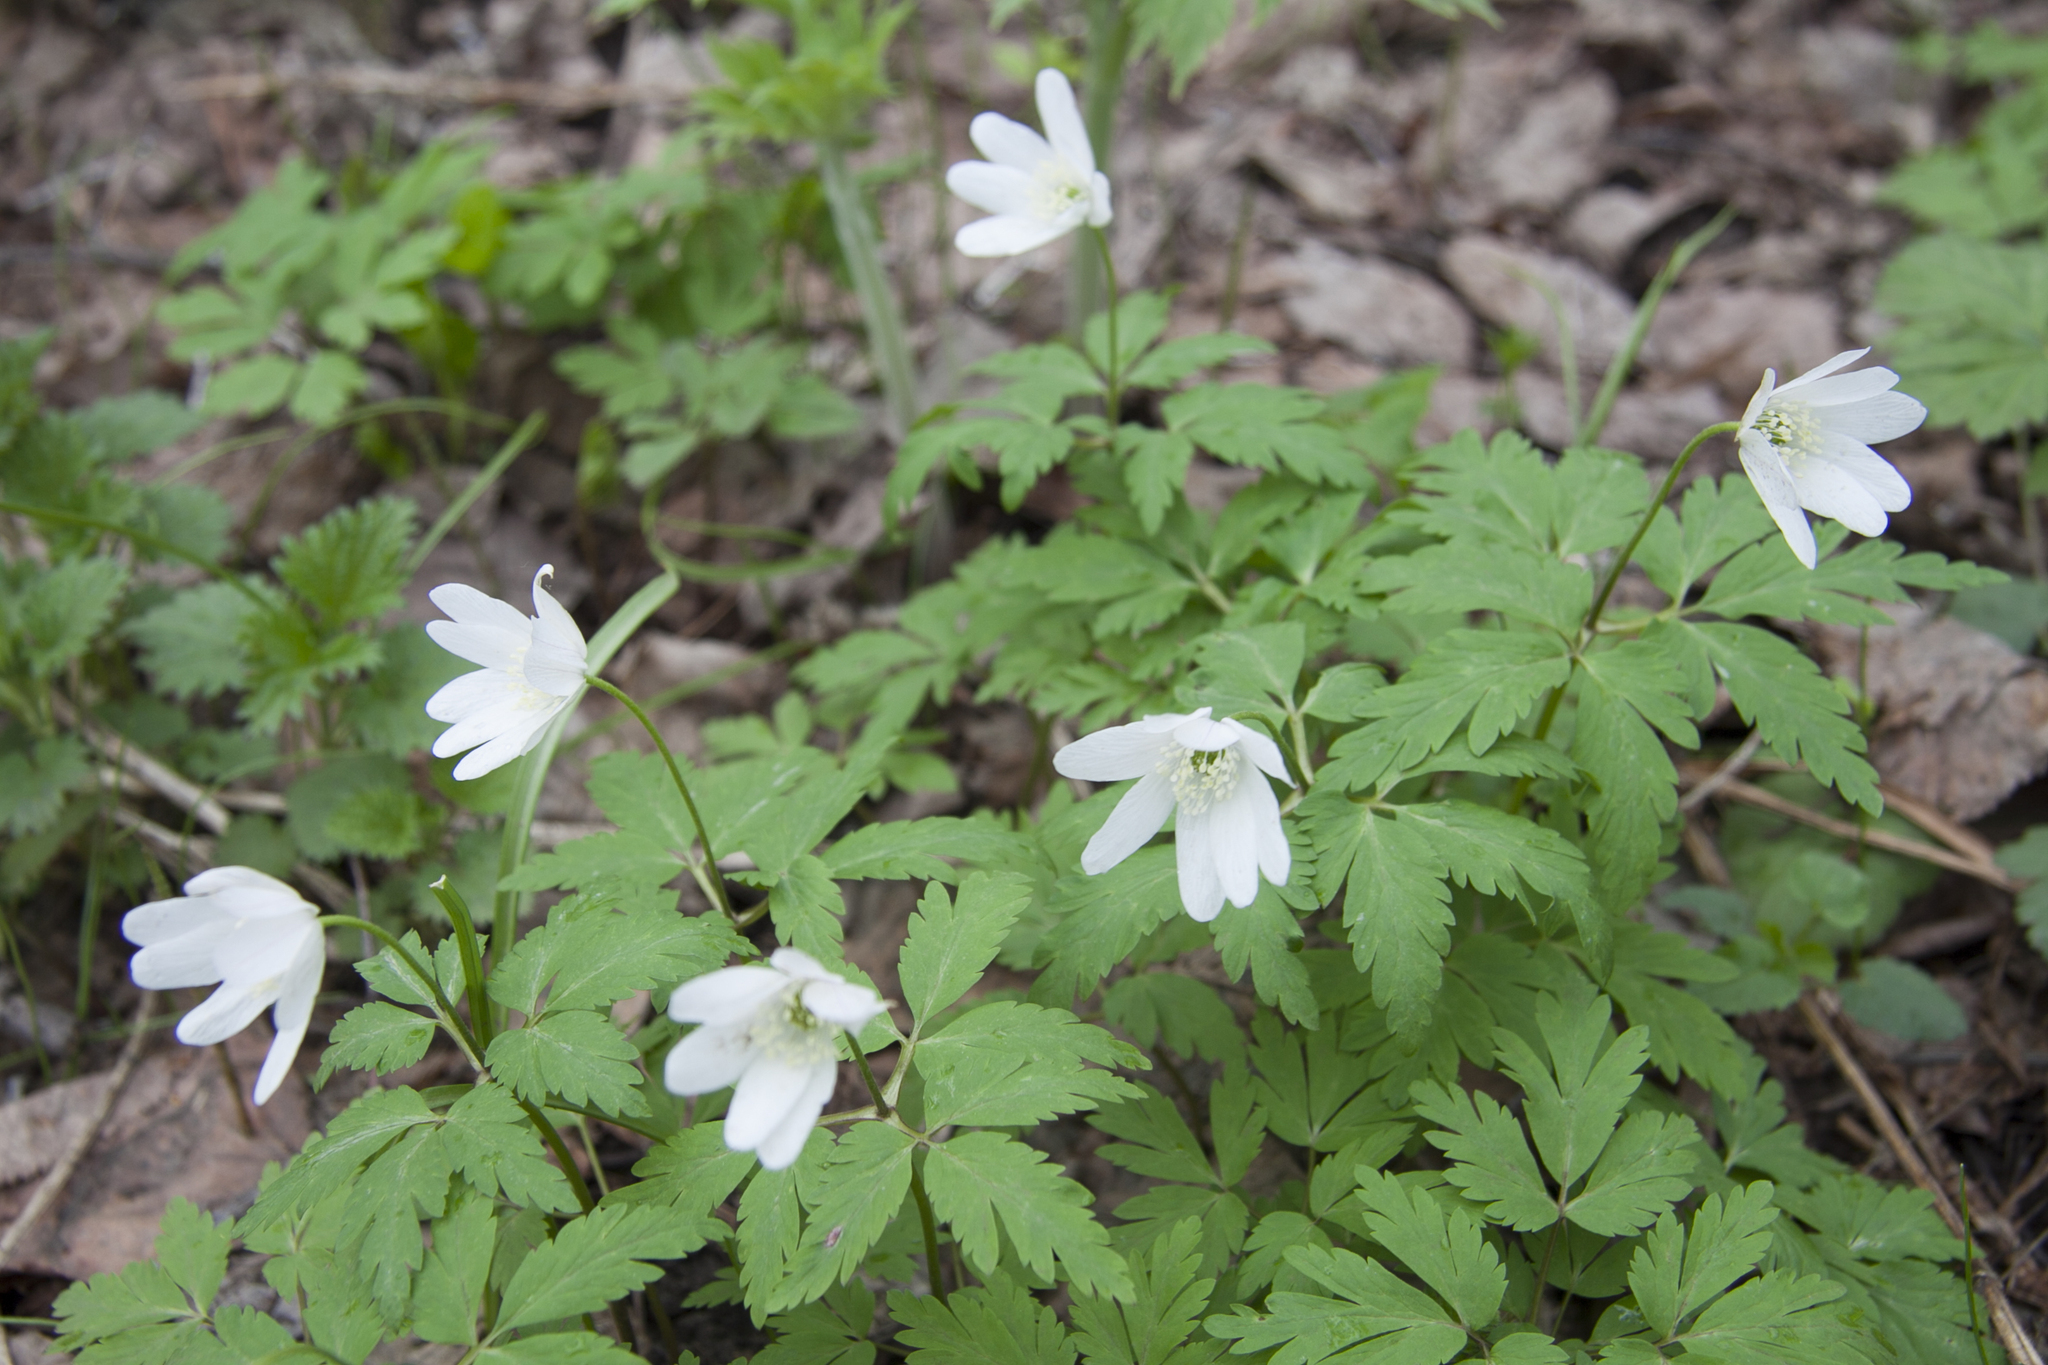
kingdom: Plantae
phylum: Tracheophyta
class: Magnoliopsida
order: Ranunculales
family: Ranunculaceae
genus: Anemone
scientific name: Anemone altaica
